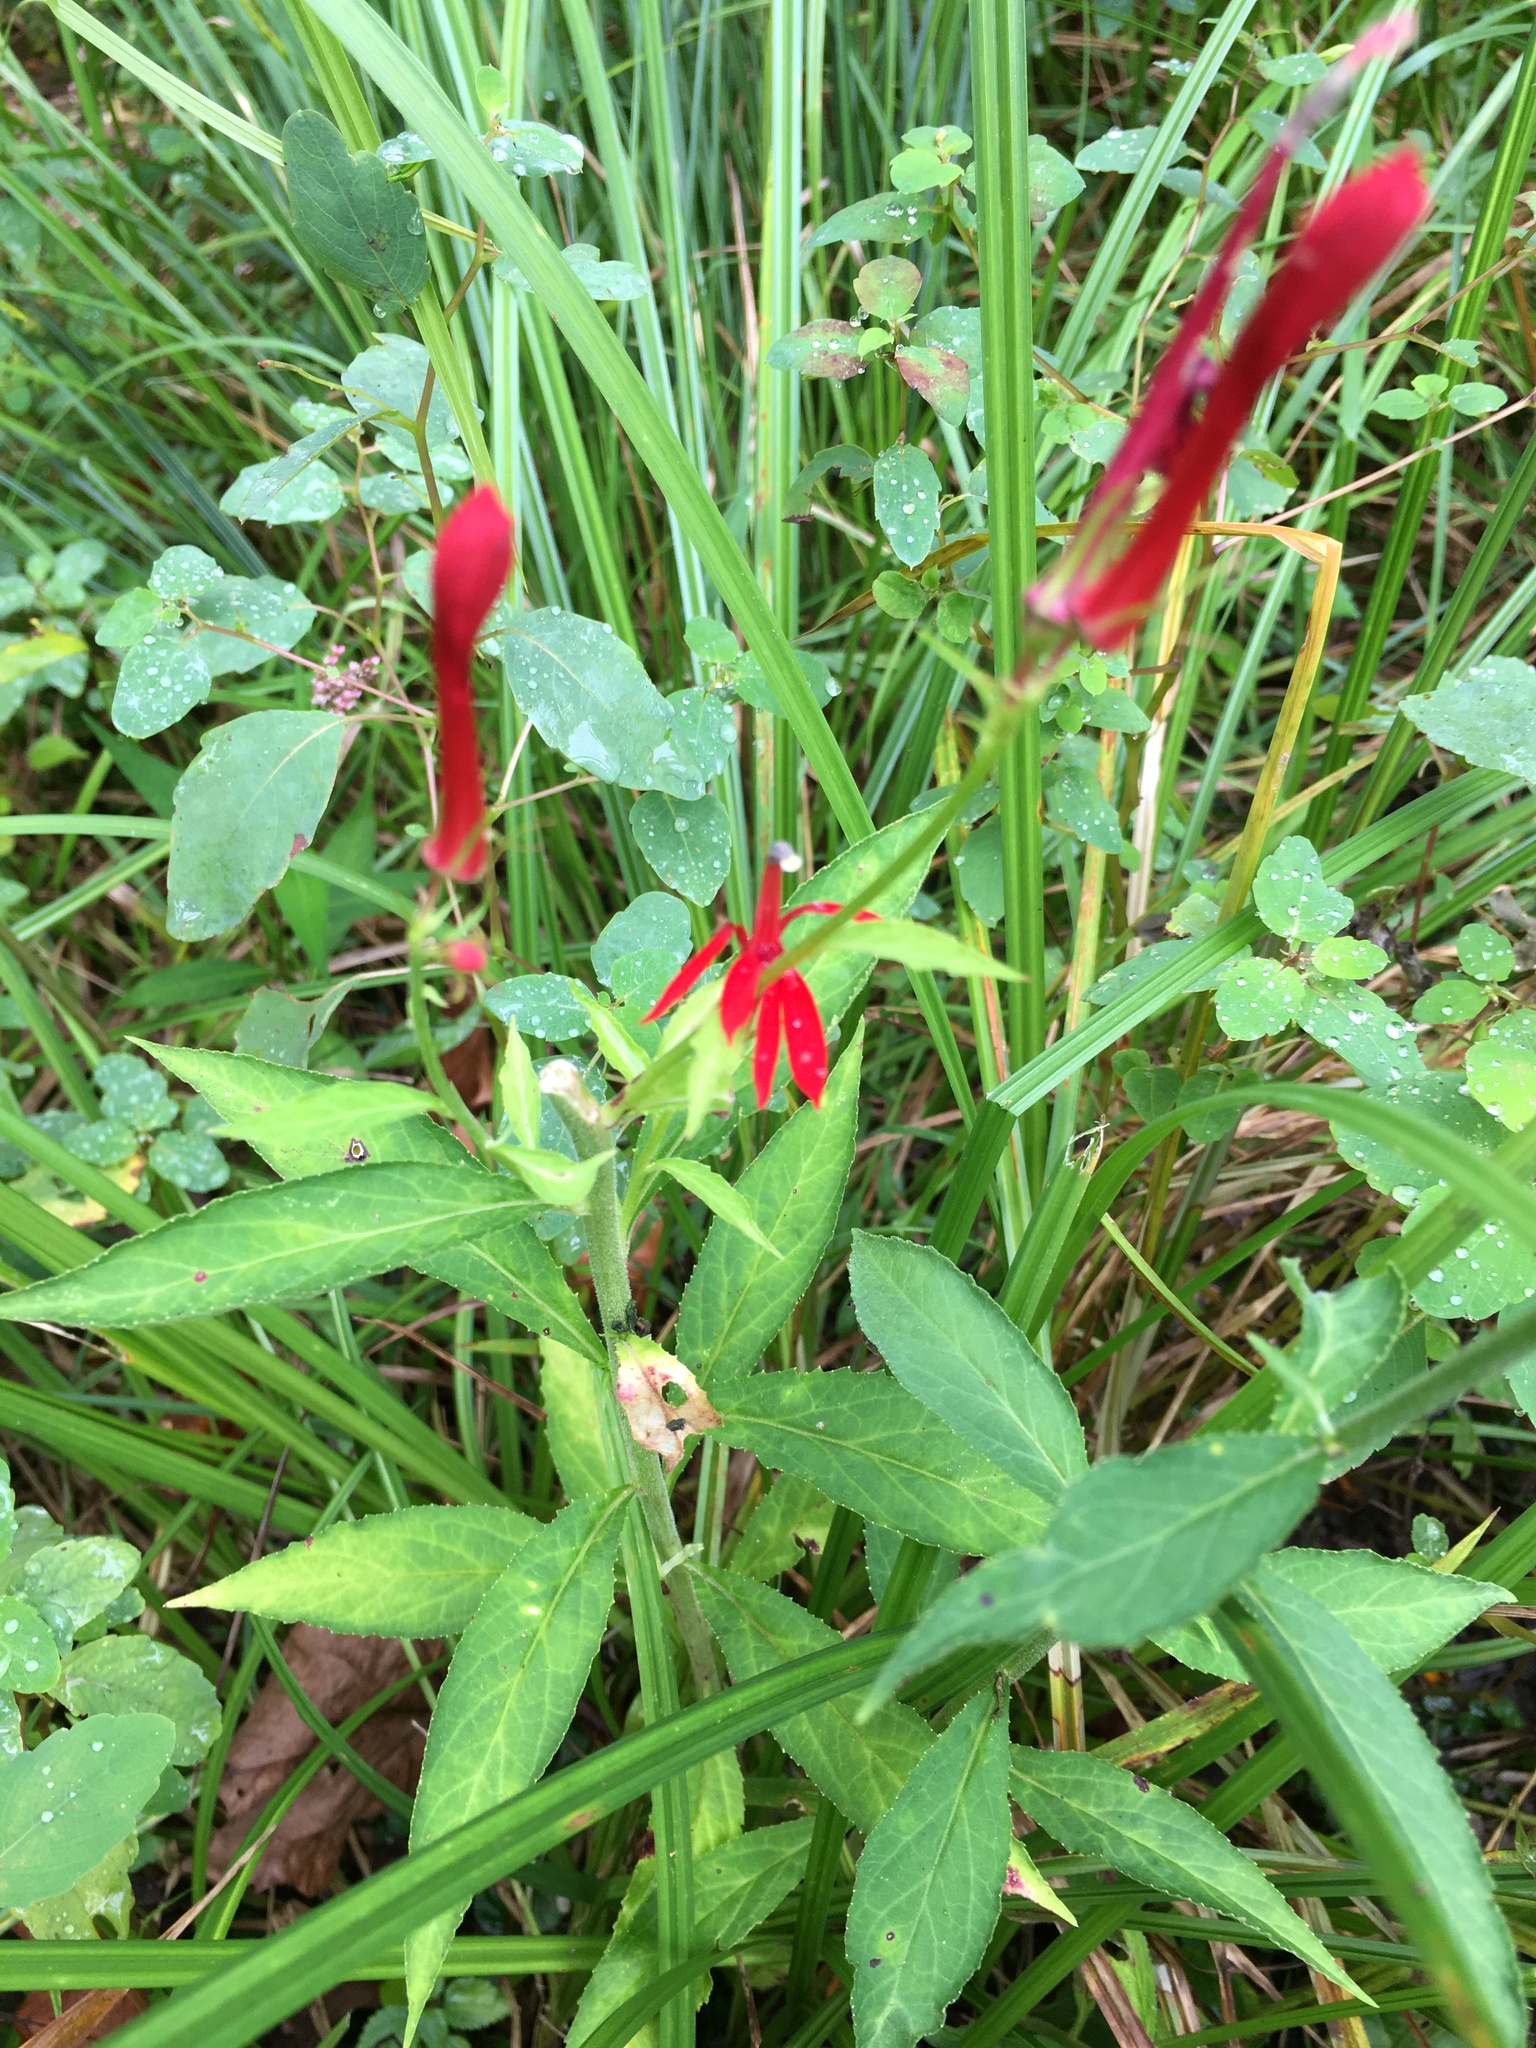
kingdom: Plantae
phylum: Tracheophyta
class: Magnoliopsida
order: Asterales
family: Campanulaceae
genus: Lobelia
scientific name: Lobelia cardinalis
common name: Cardinal flower
